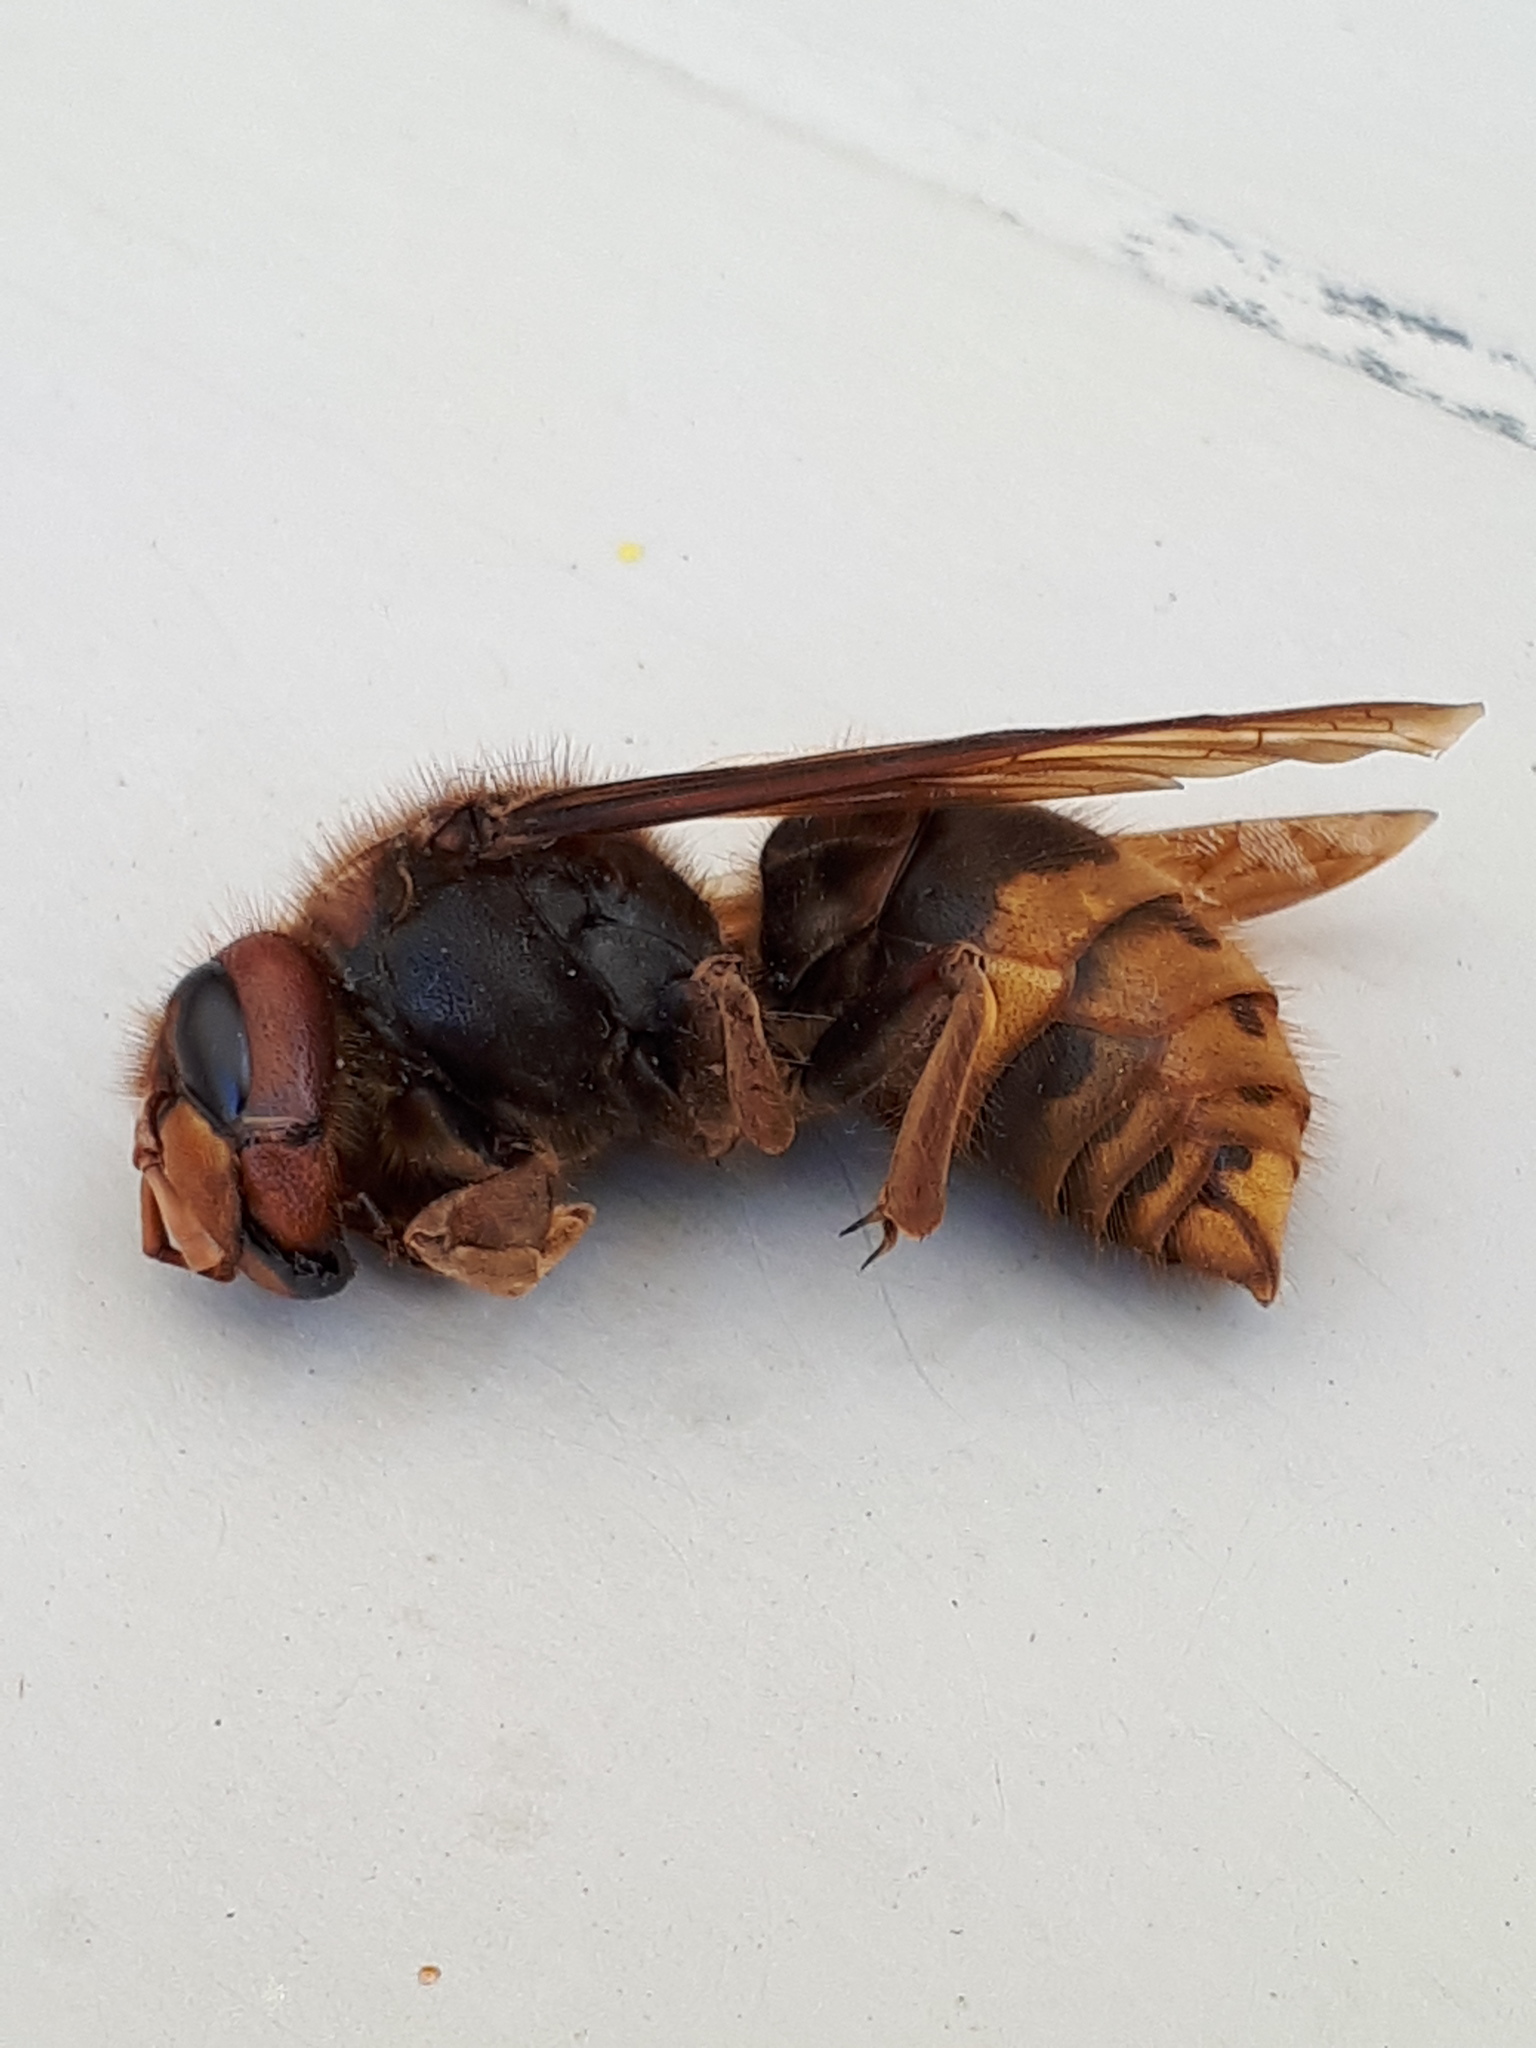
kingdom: Animalia
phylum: Arthropoda
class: Insecta
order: Hymenoptera
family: Vespidae
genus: Vespa
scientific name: Vespa crabro
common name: Hornet
